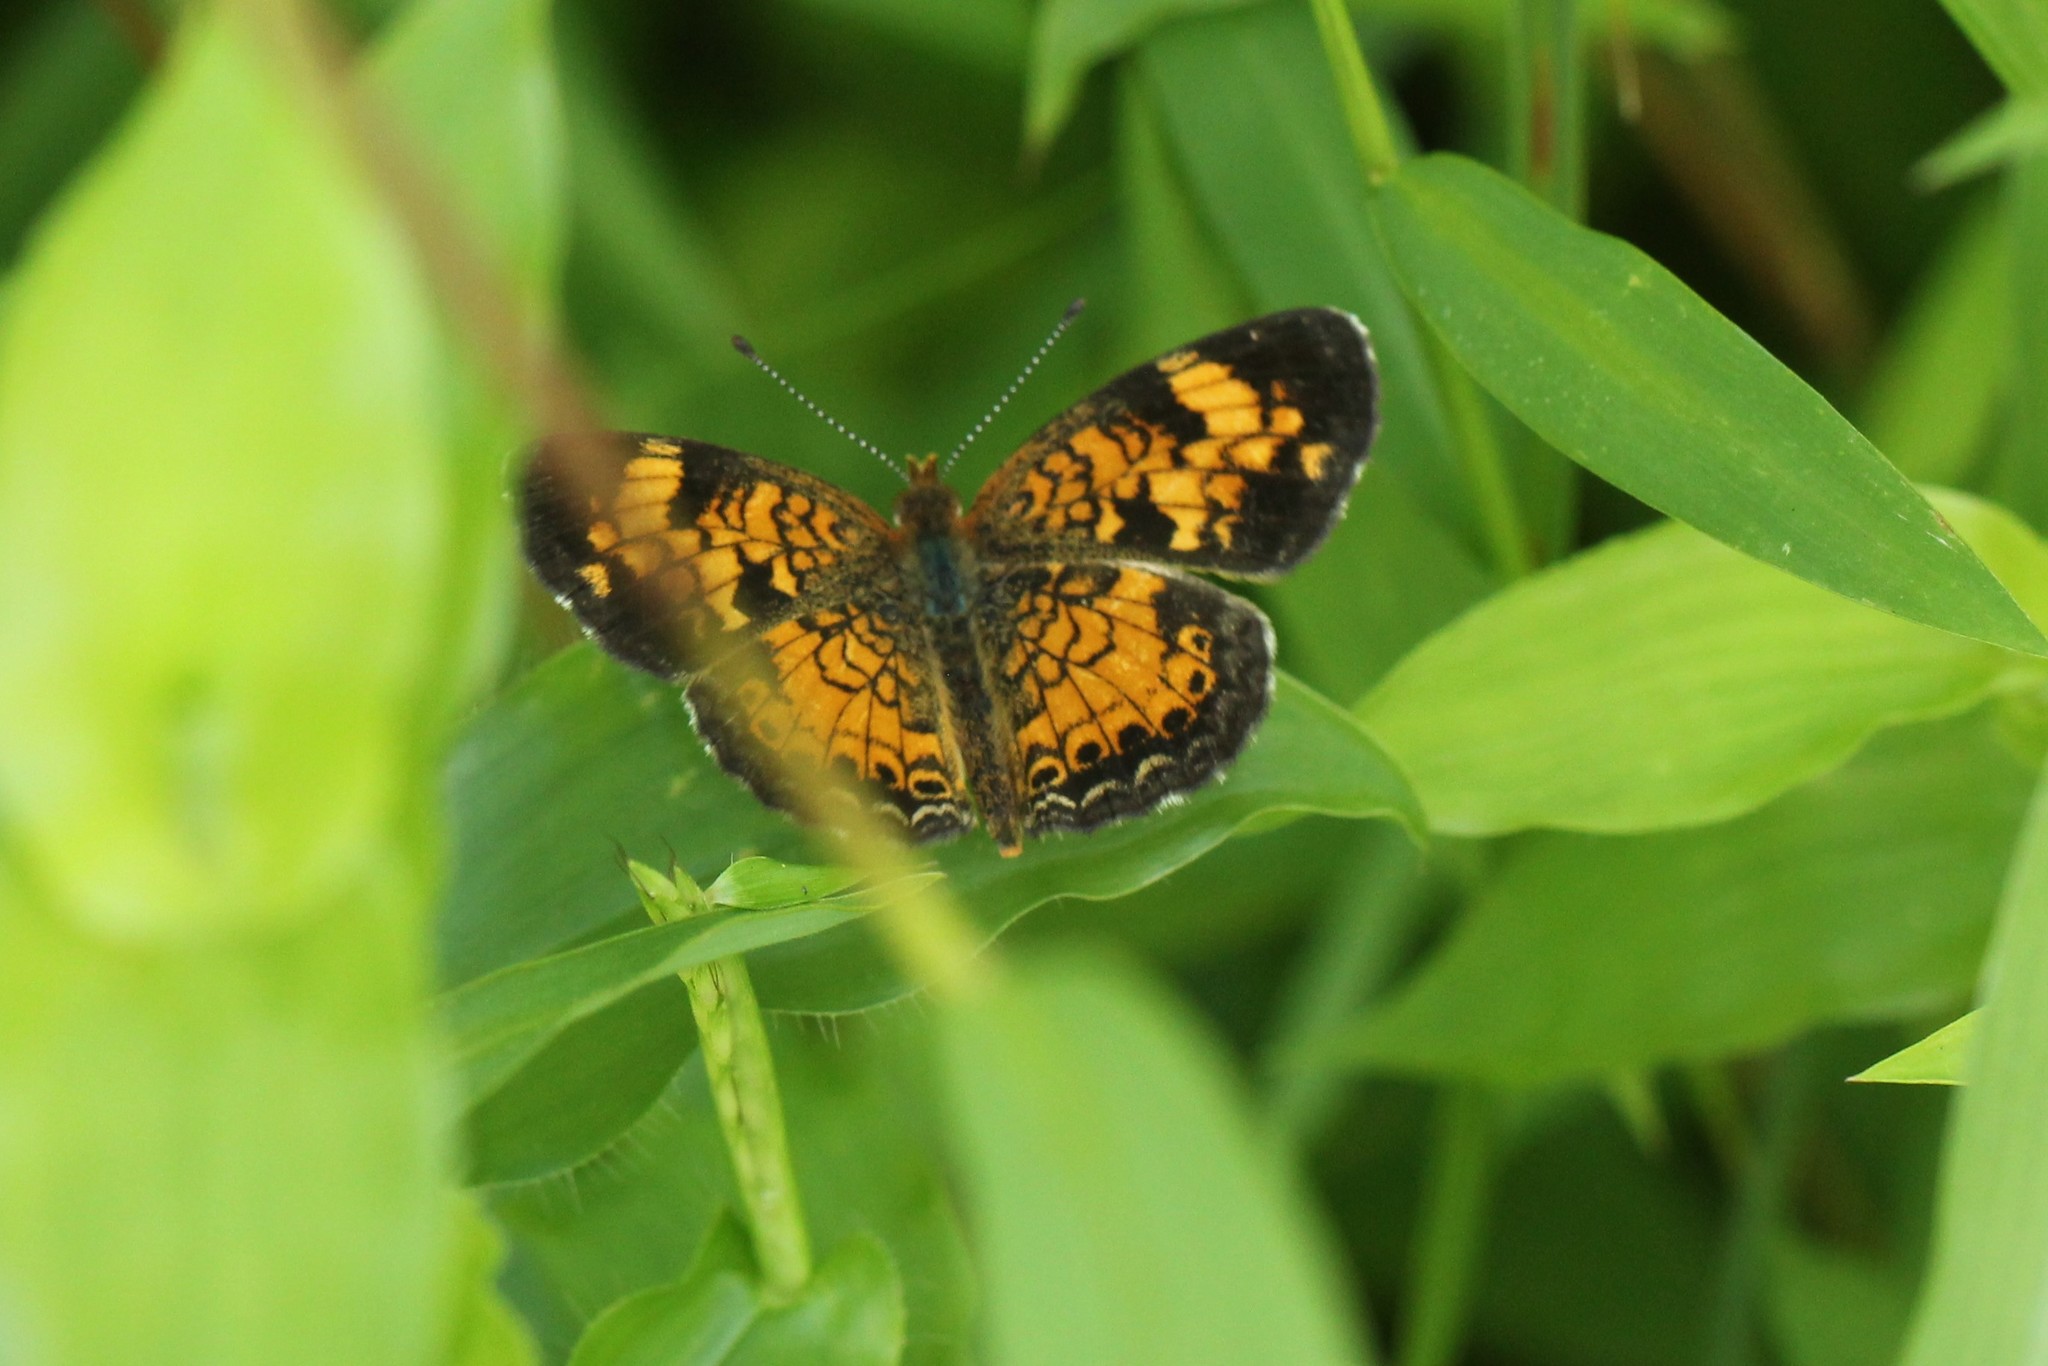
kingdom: Animalia
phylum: Arthropoda
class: Insecta
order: Lepidoptera
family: Nymphalidae
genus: Phyciodes
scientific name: Phyciodes tharos
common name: Pearl crescent
